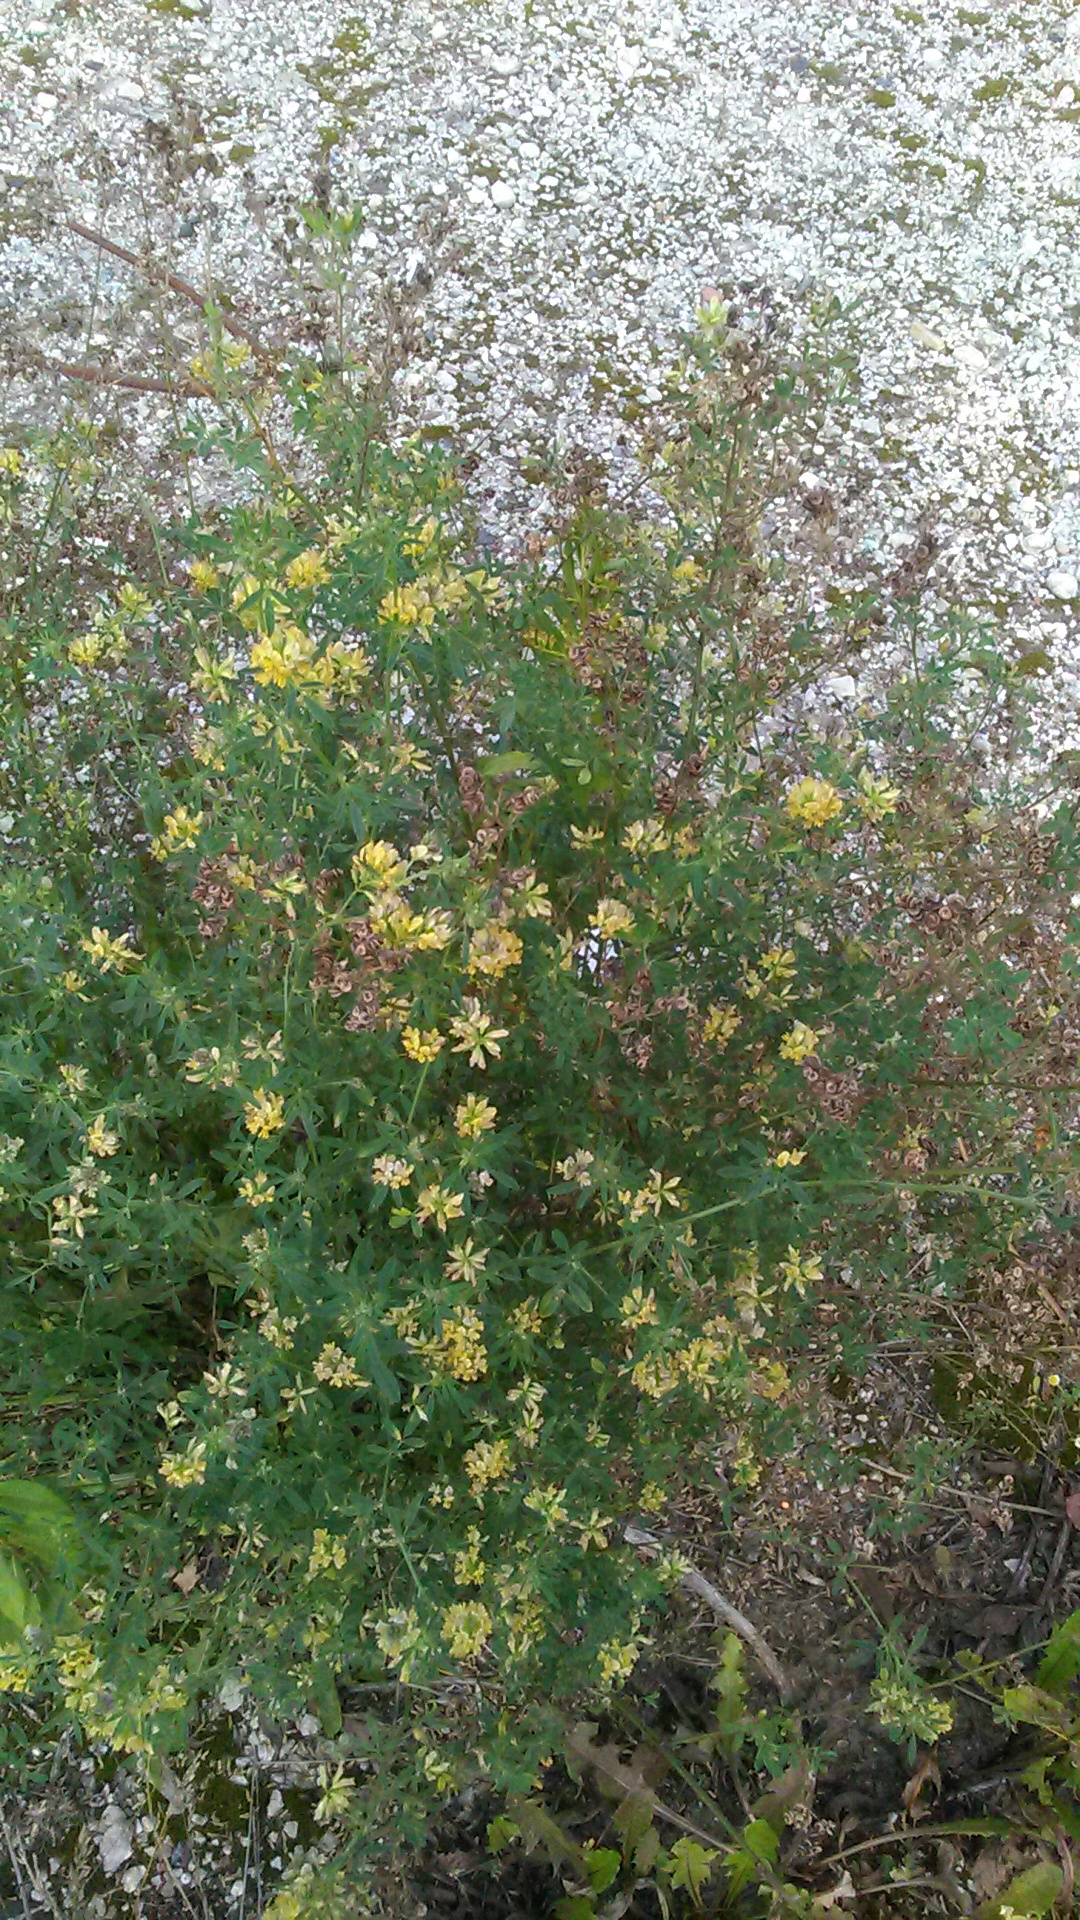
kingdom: Plantae
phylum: Tracheophyta
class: Magnoliopsida
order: Fabales
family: Fabaceae
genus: Medicago
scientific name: Medicago varia
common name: Sand lucerne
